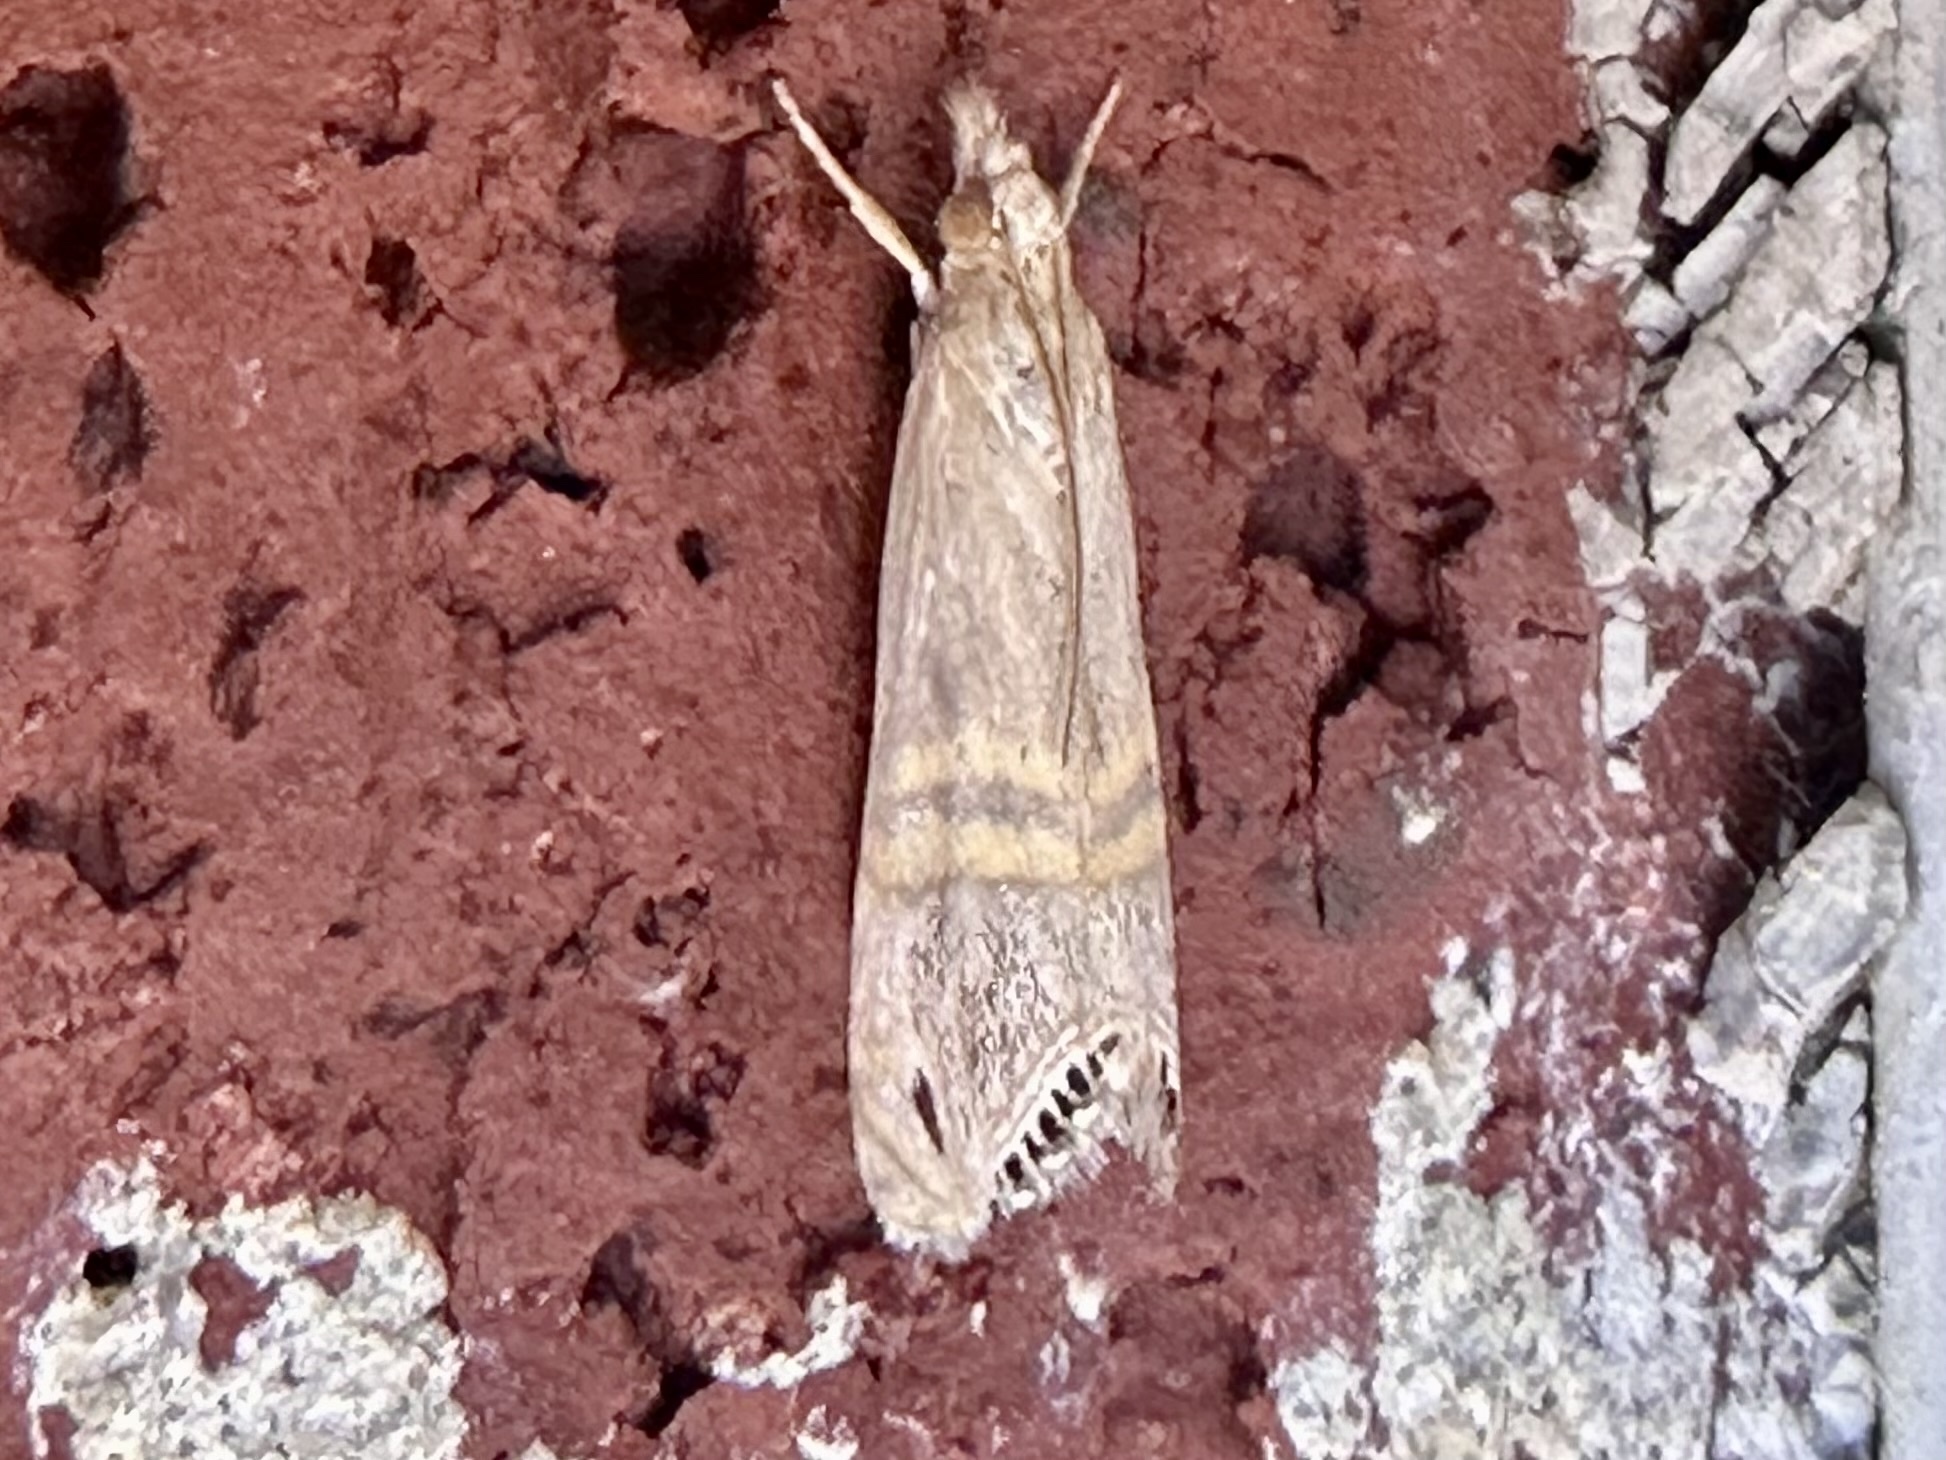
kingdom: Animalia
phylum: Arthropoda
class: Insecta
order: Lepidoptera
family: Crambidae
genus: Euchromius
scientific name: Euchromius ocellea
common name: Necklace veneer moth
